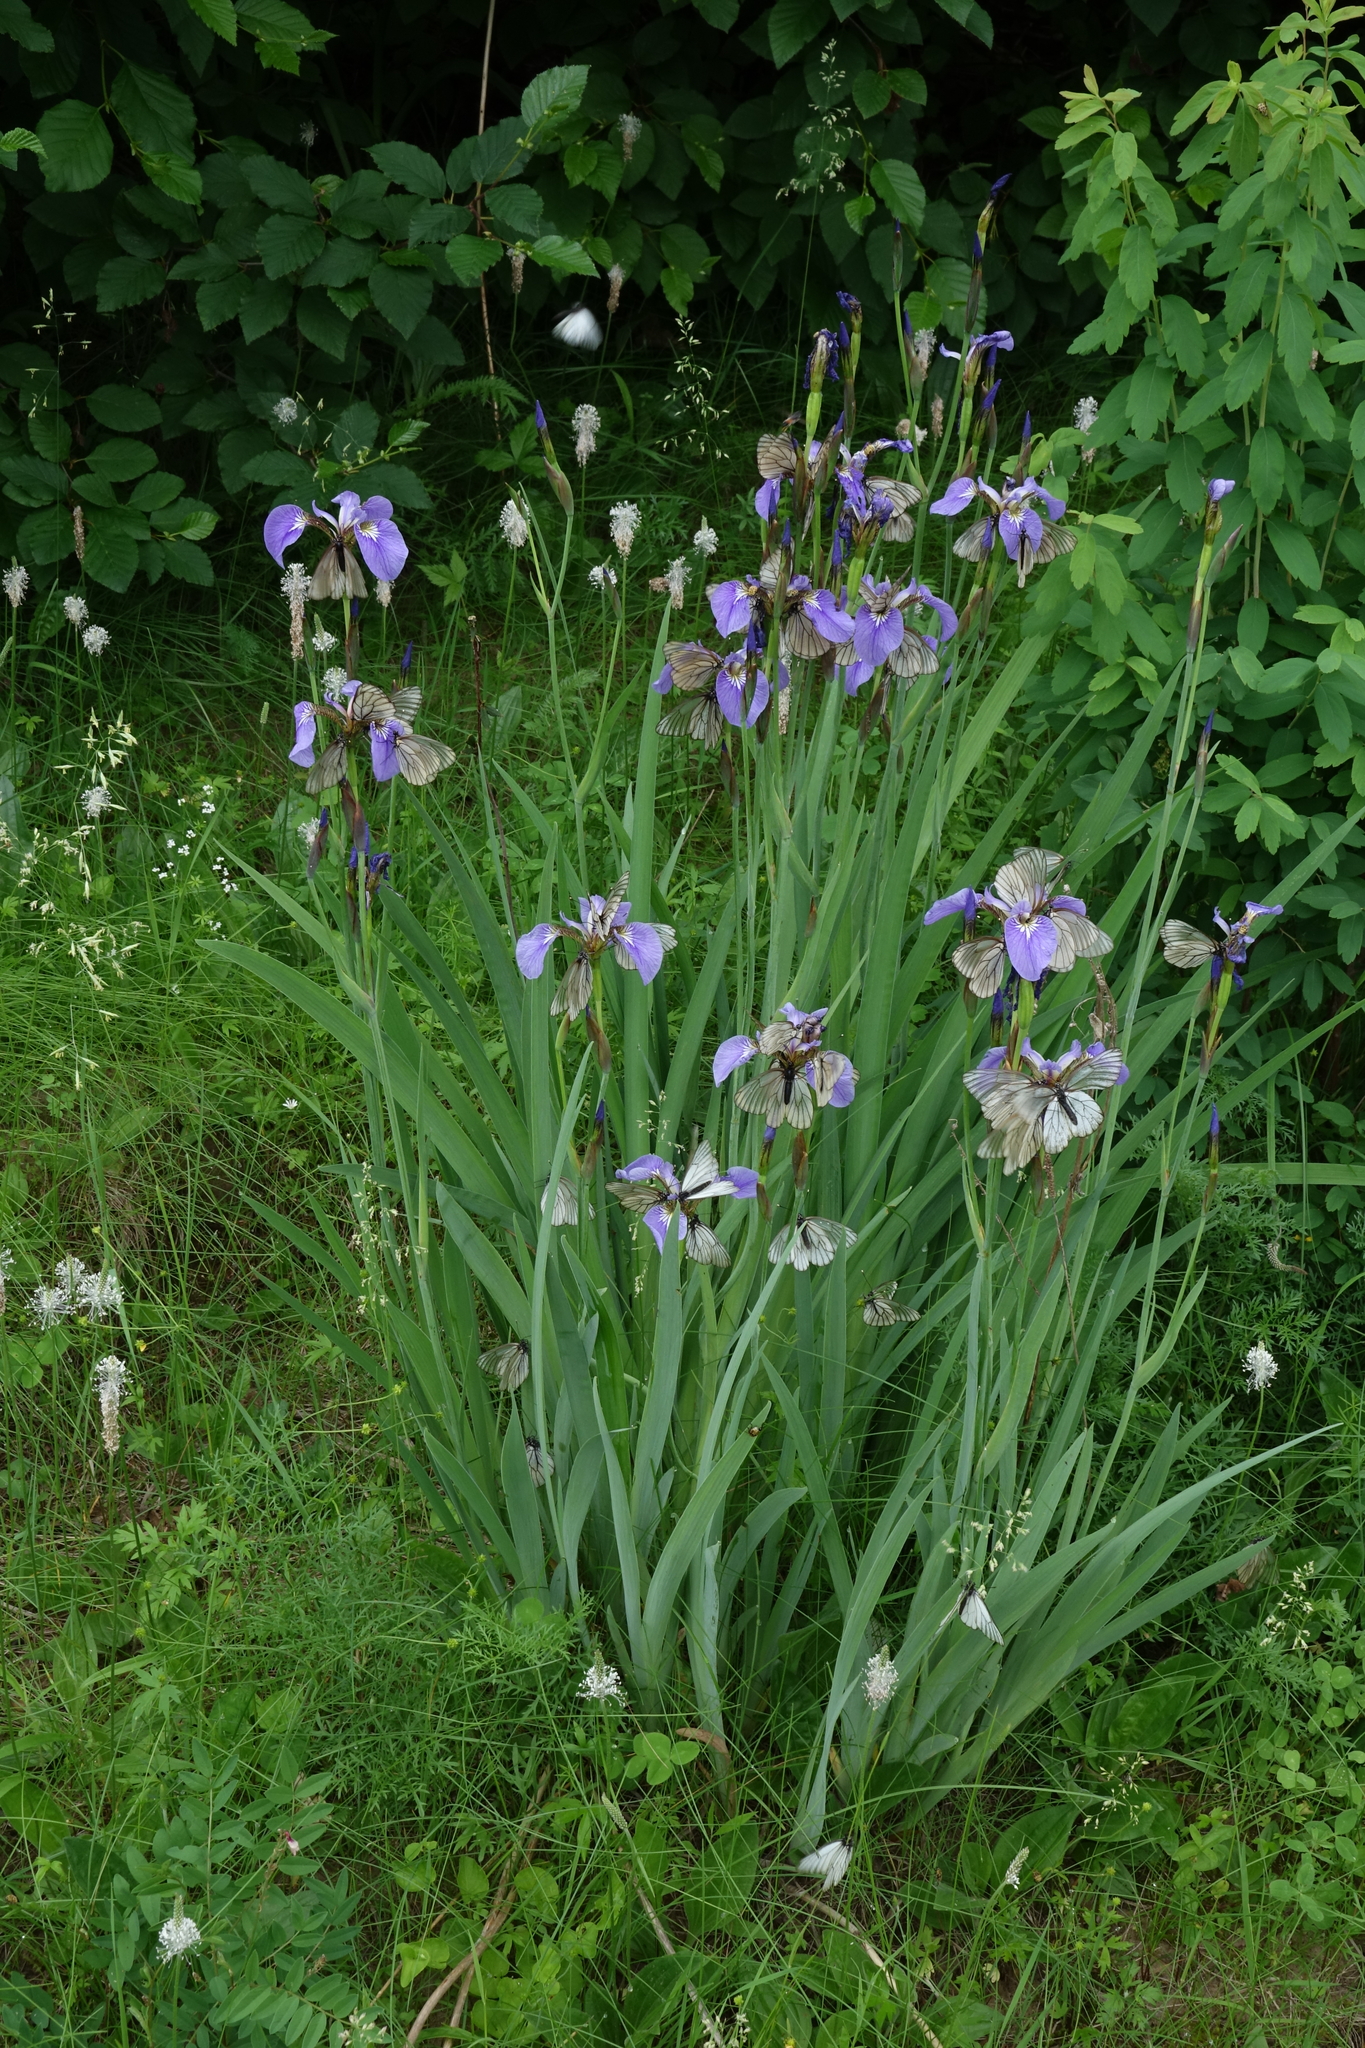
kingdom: Plantae
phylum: Tracheophyta
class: Liliopsida
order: Asparagales
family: Iridaceae
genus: Iris
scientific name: Iris setosa
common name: Arctic blue flag
